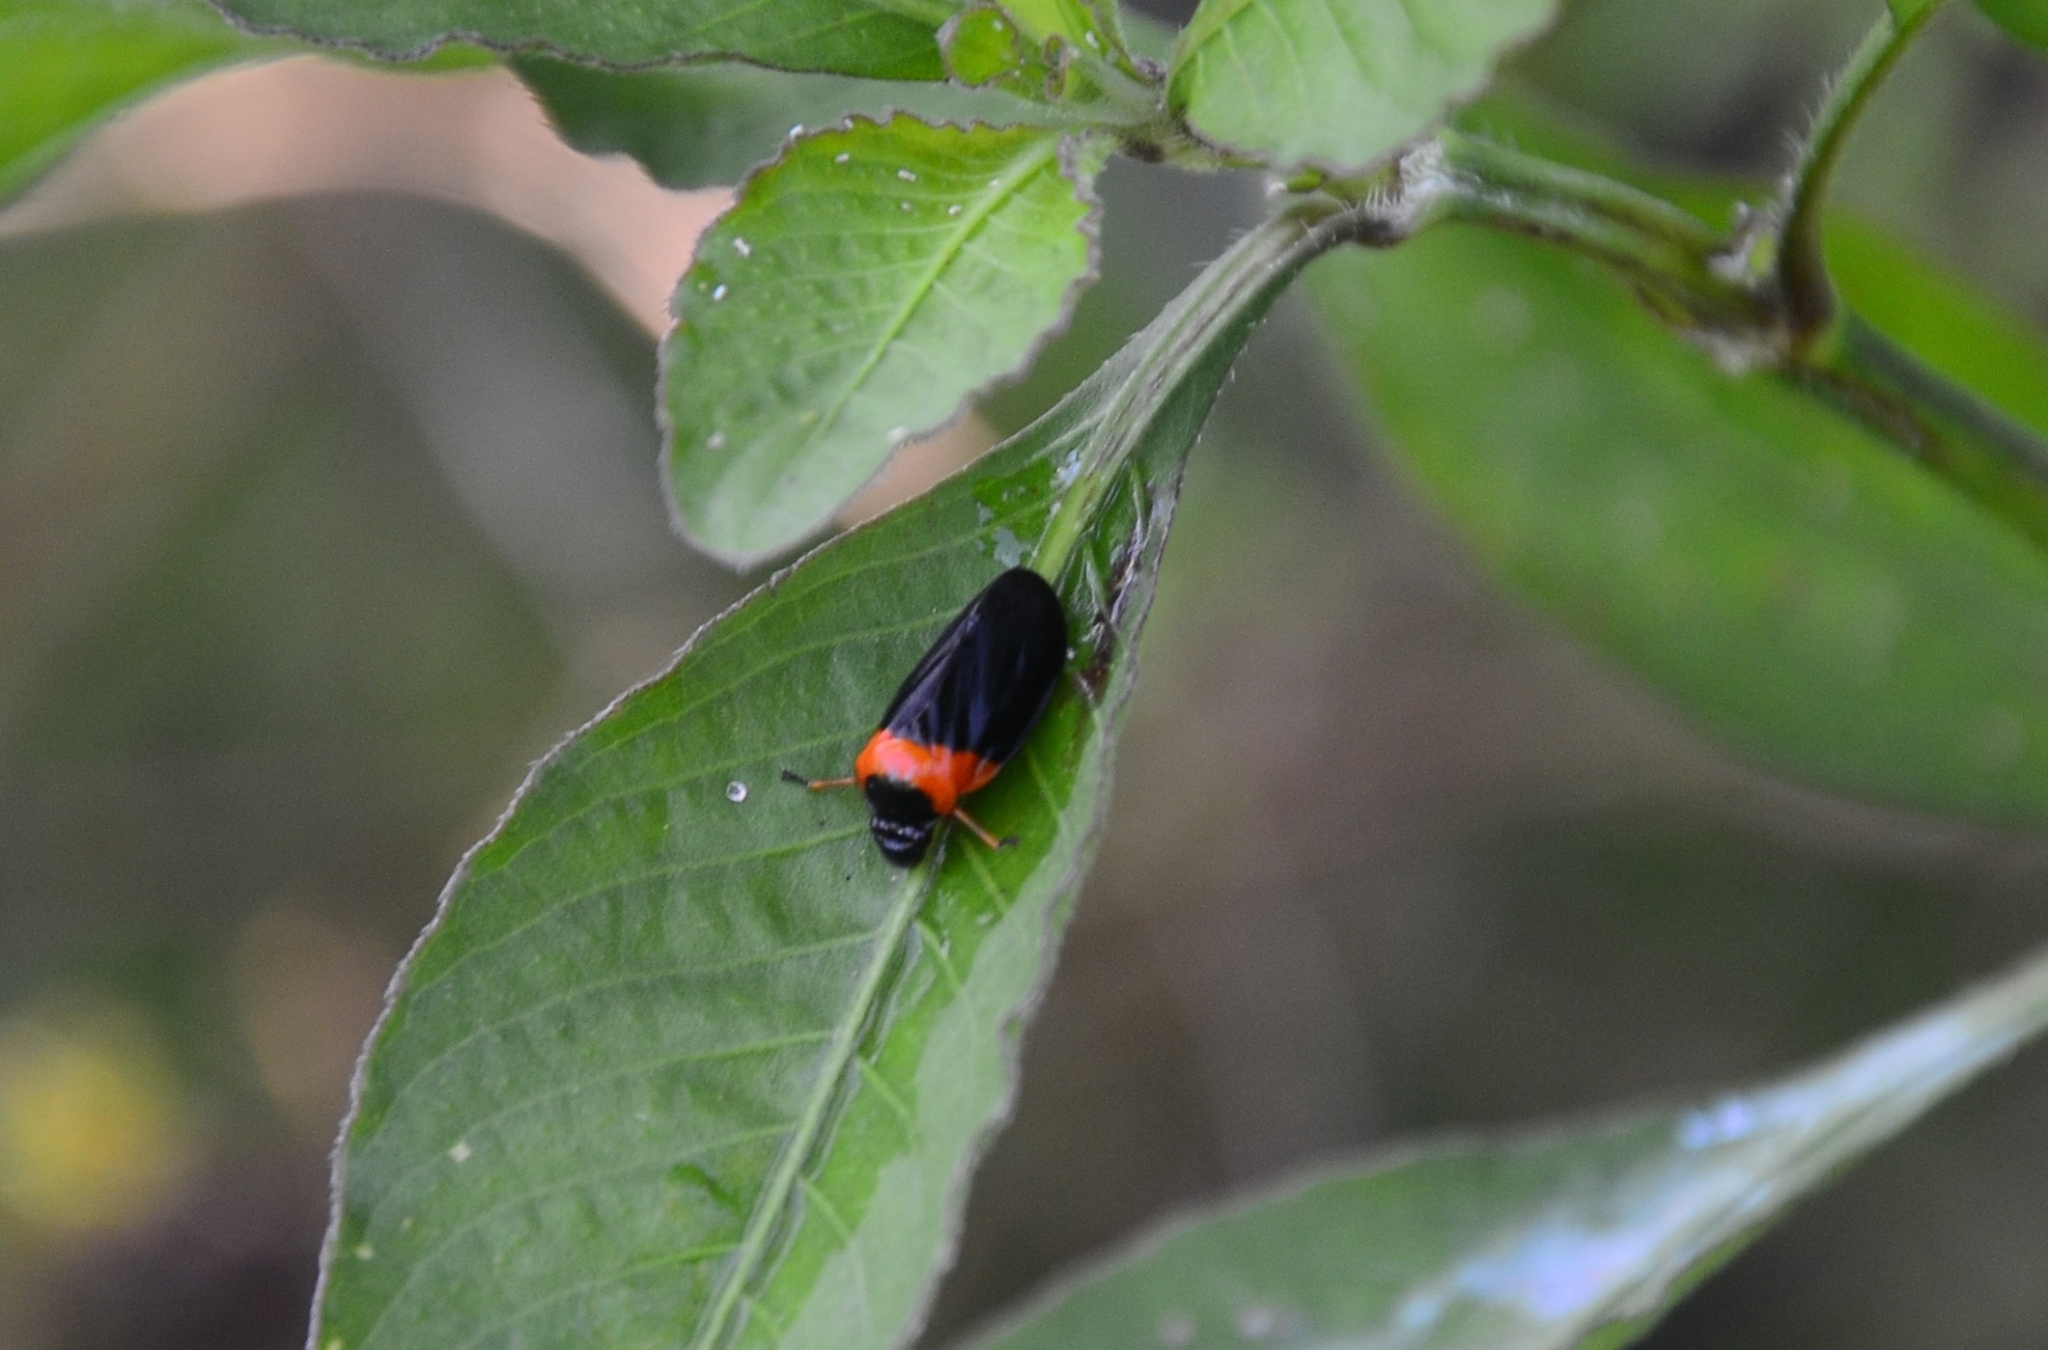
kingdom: Animalia
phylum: Arthropoda
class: Insecta
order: Hemiptera
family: Cercopidae
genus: Phymatostetha
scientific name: Phymatostetha deschampsi
